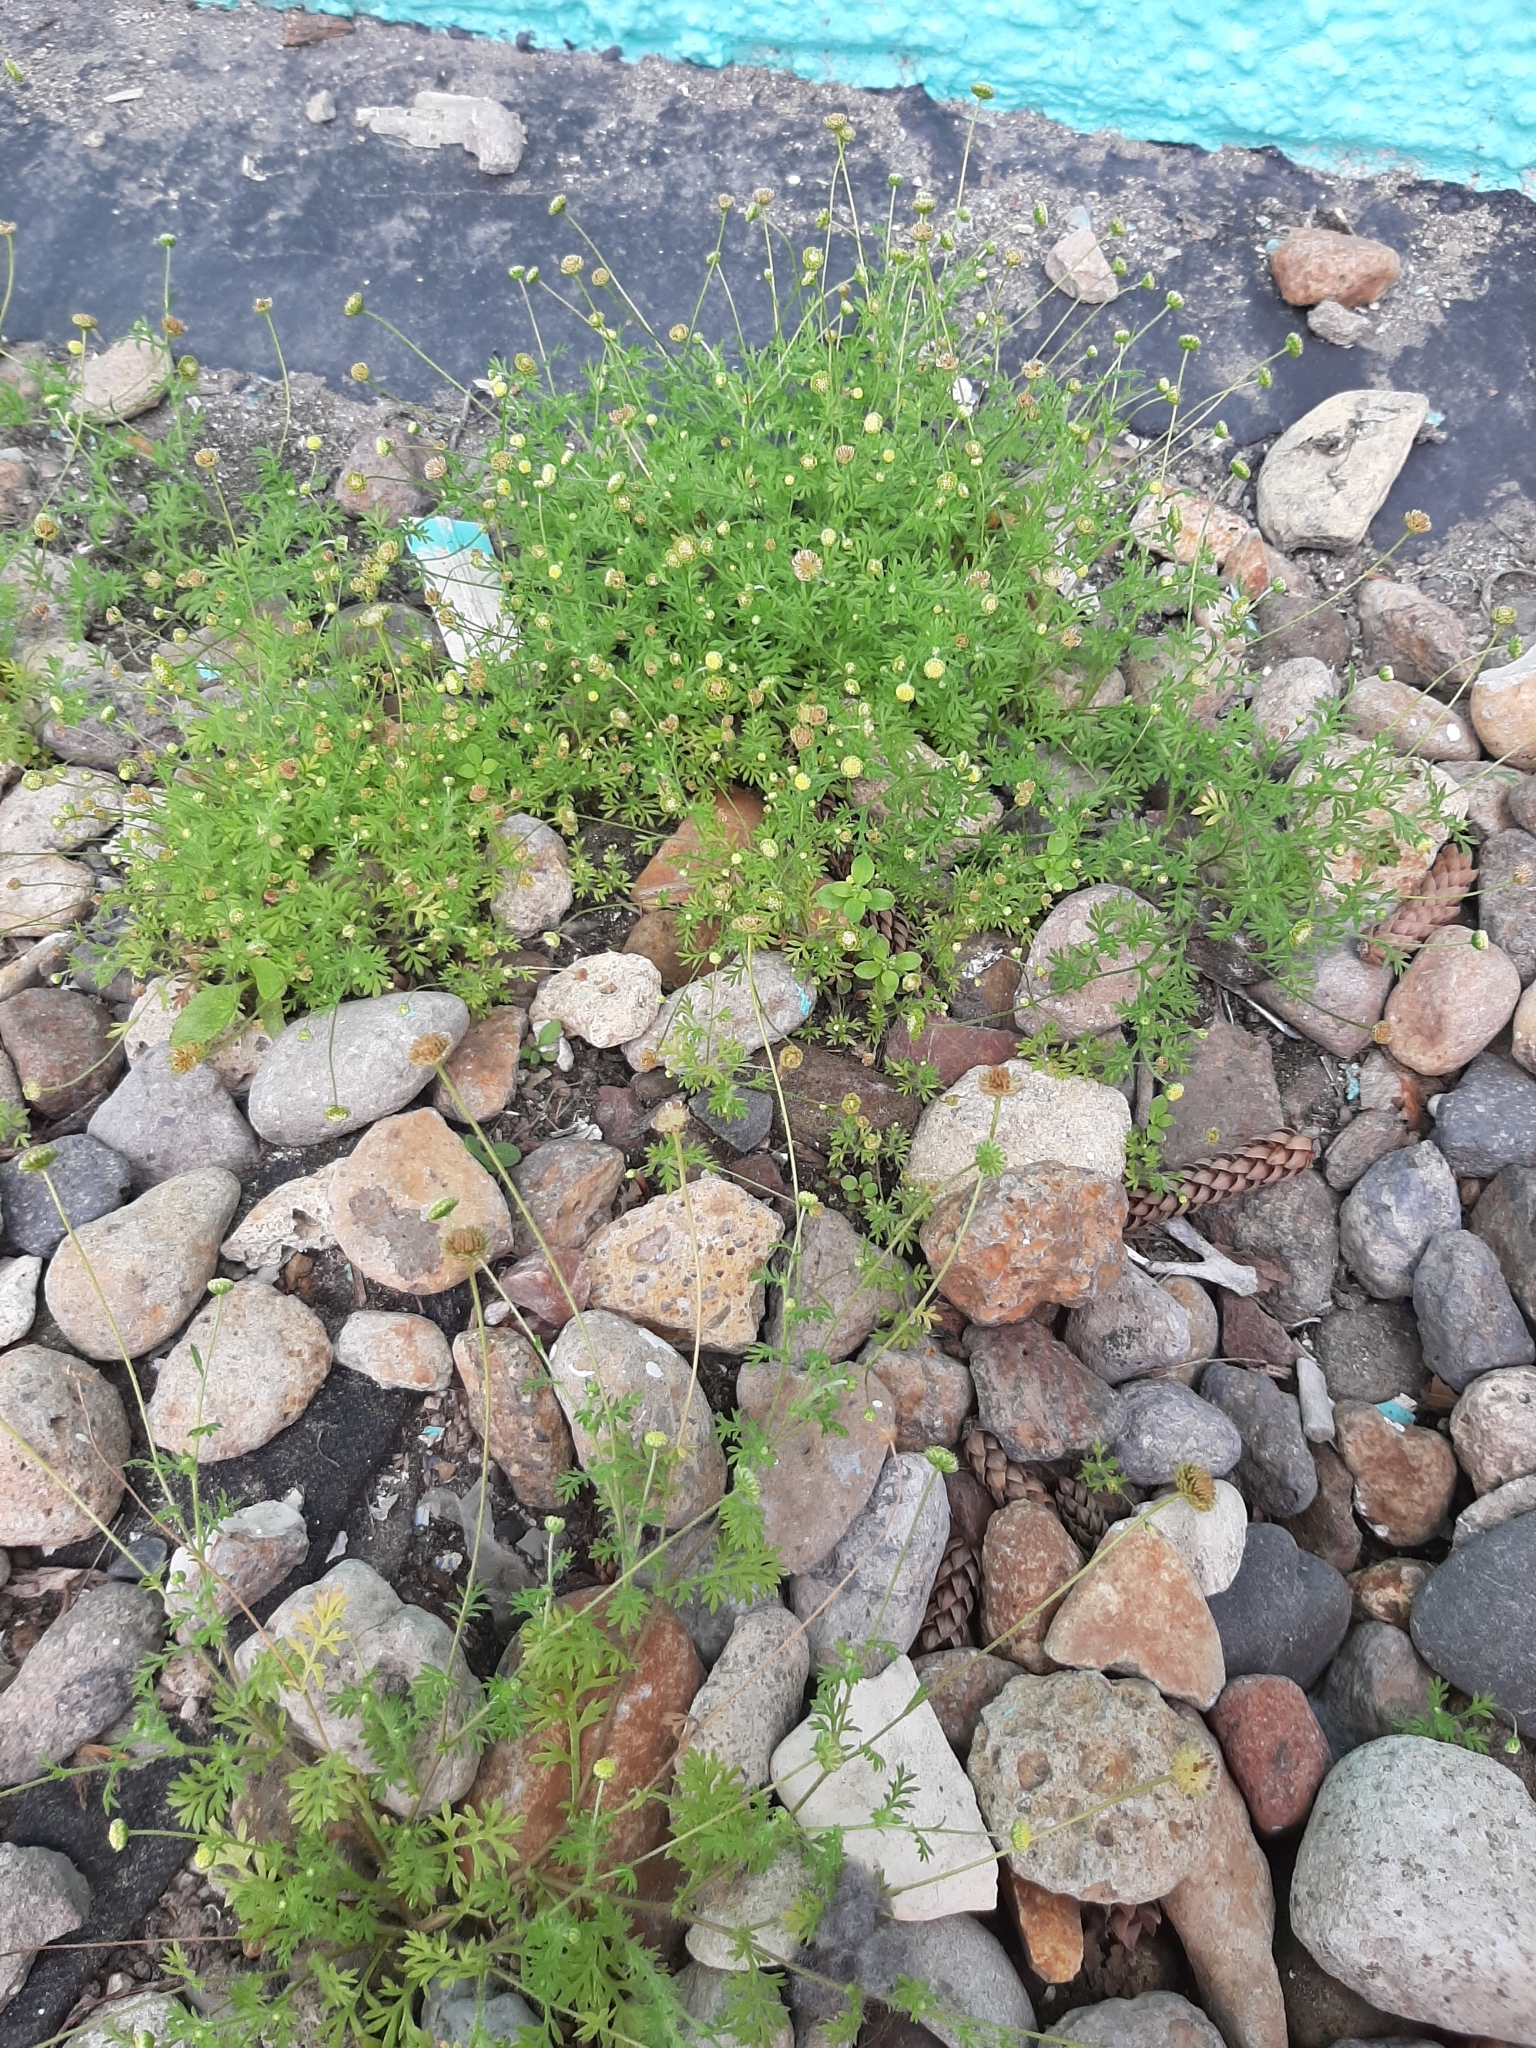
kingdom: Plantae
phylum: Tracheophyta
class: Magnoliopsida
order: Asterales
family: Asteraceae
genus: Cotula
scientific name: Cotula australis
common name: Australian waterbuttons
